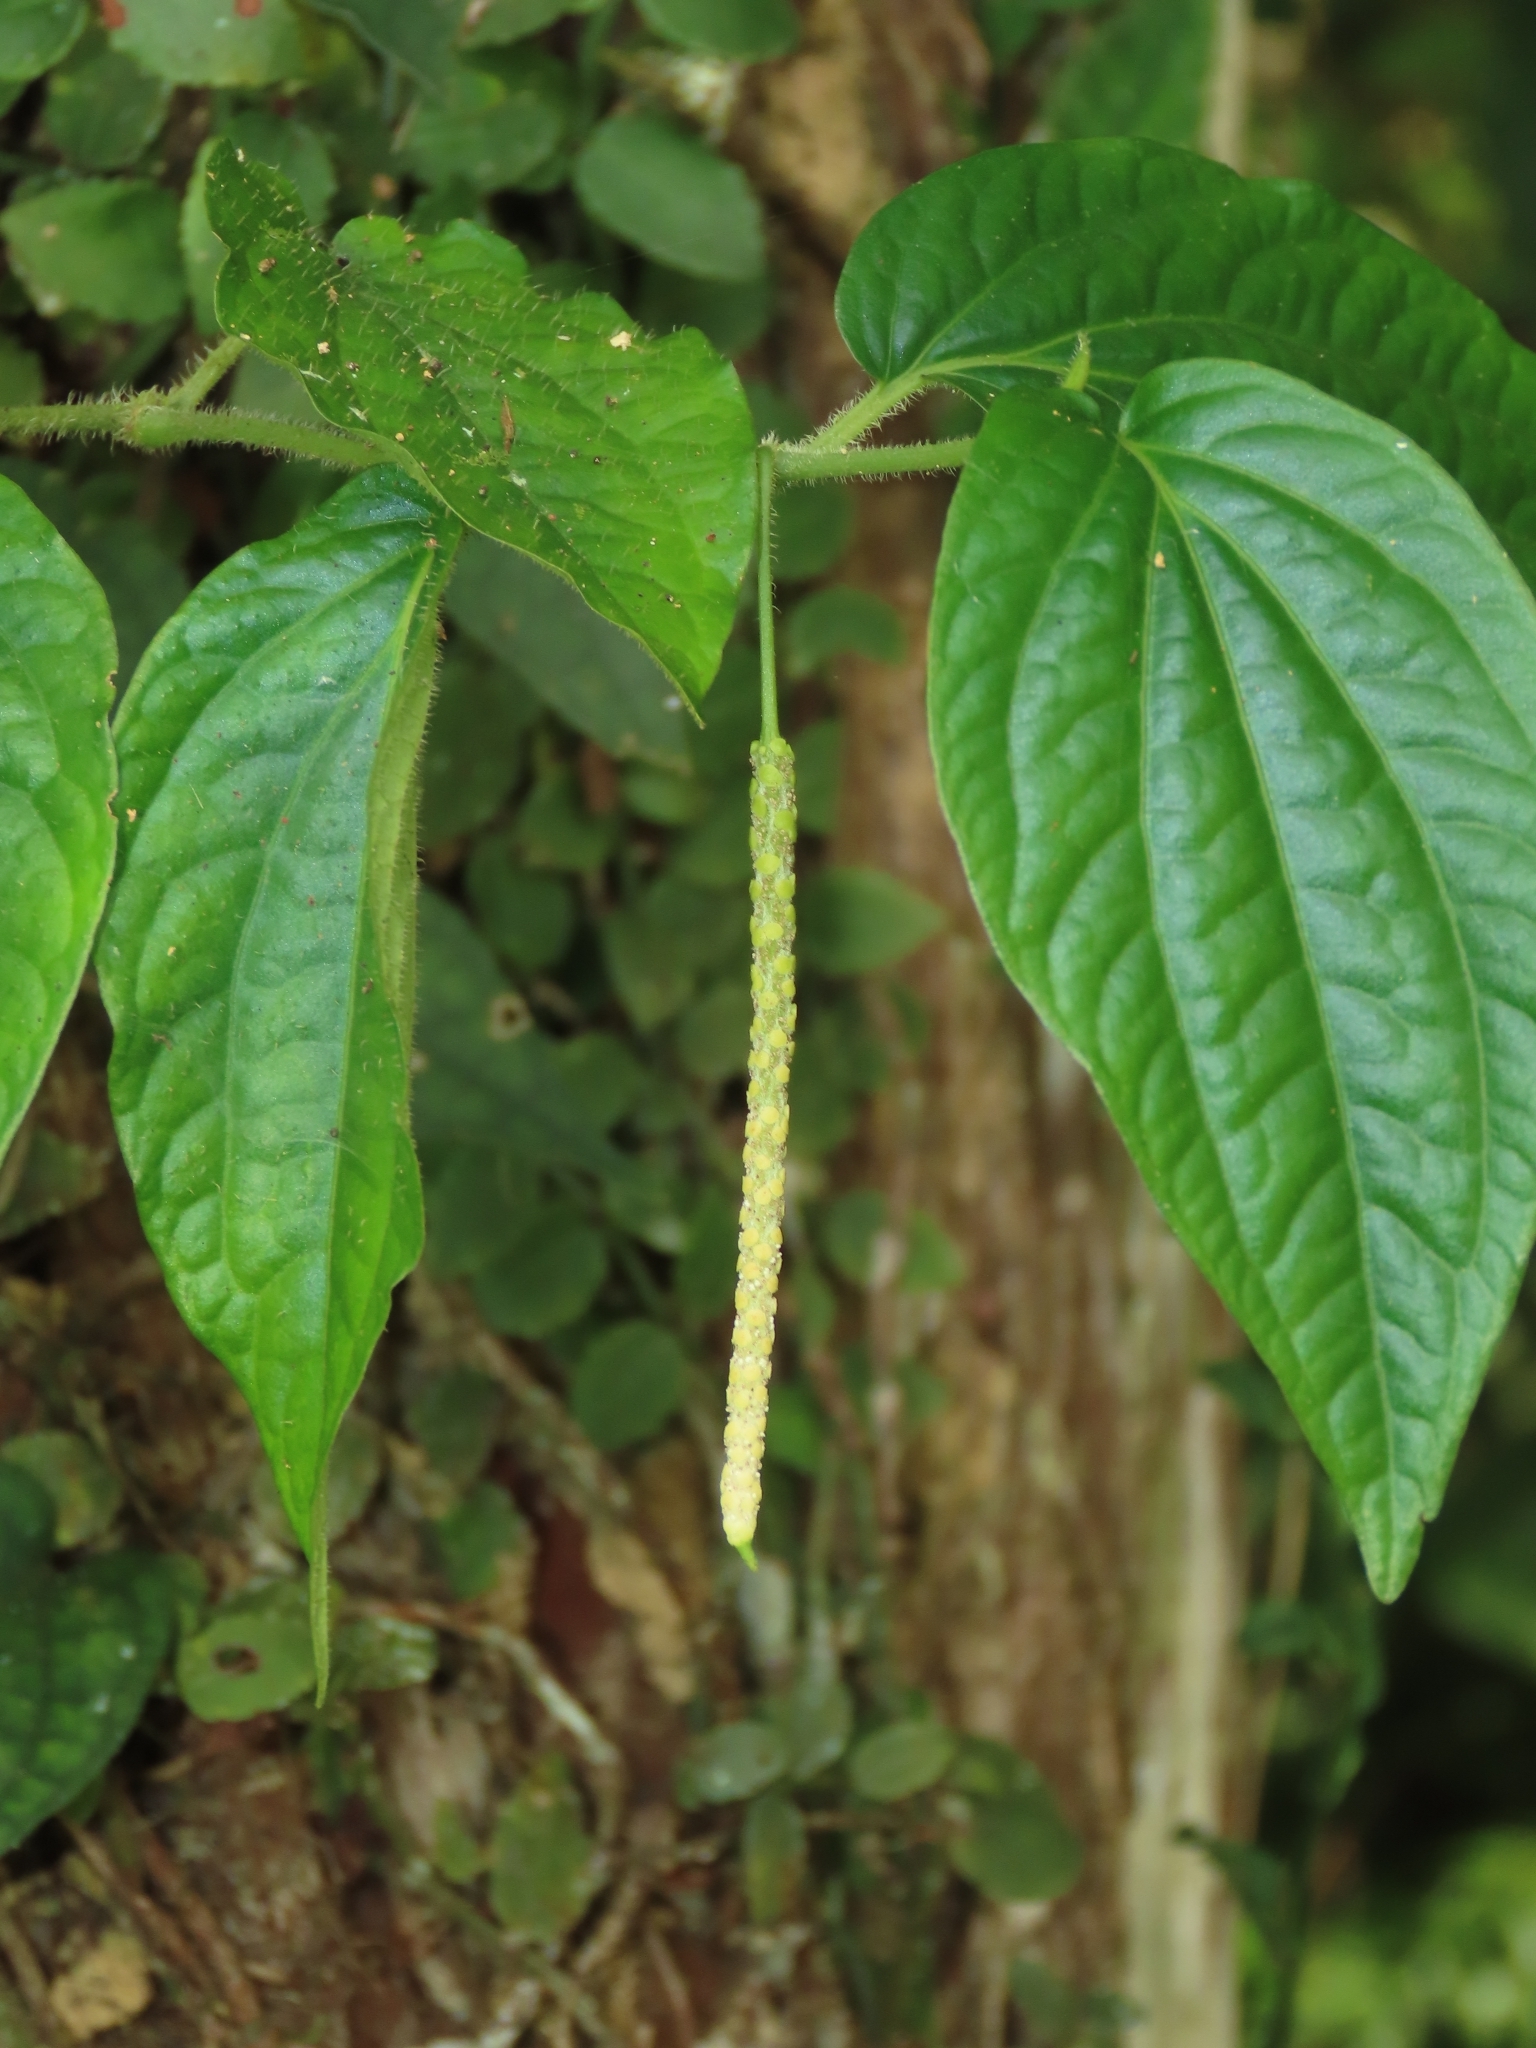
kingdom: Plantae
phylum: Tracheophyta
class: Magnoliopsida
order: Piperales
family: Piperaceae
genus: Piper
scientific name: Piper sintenense
